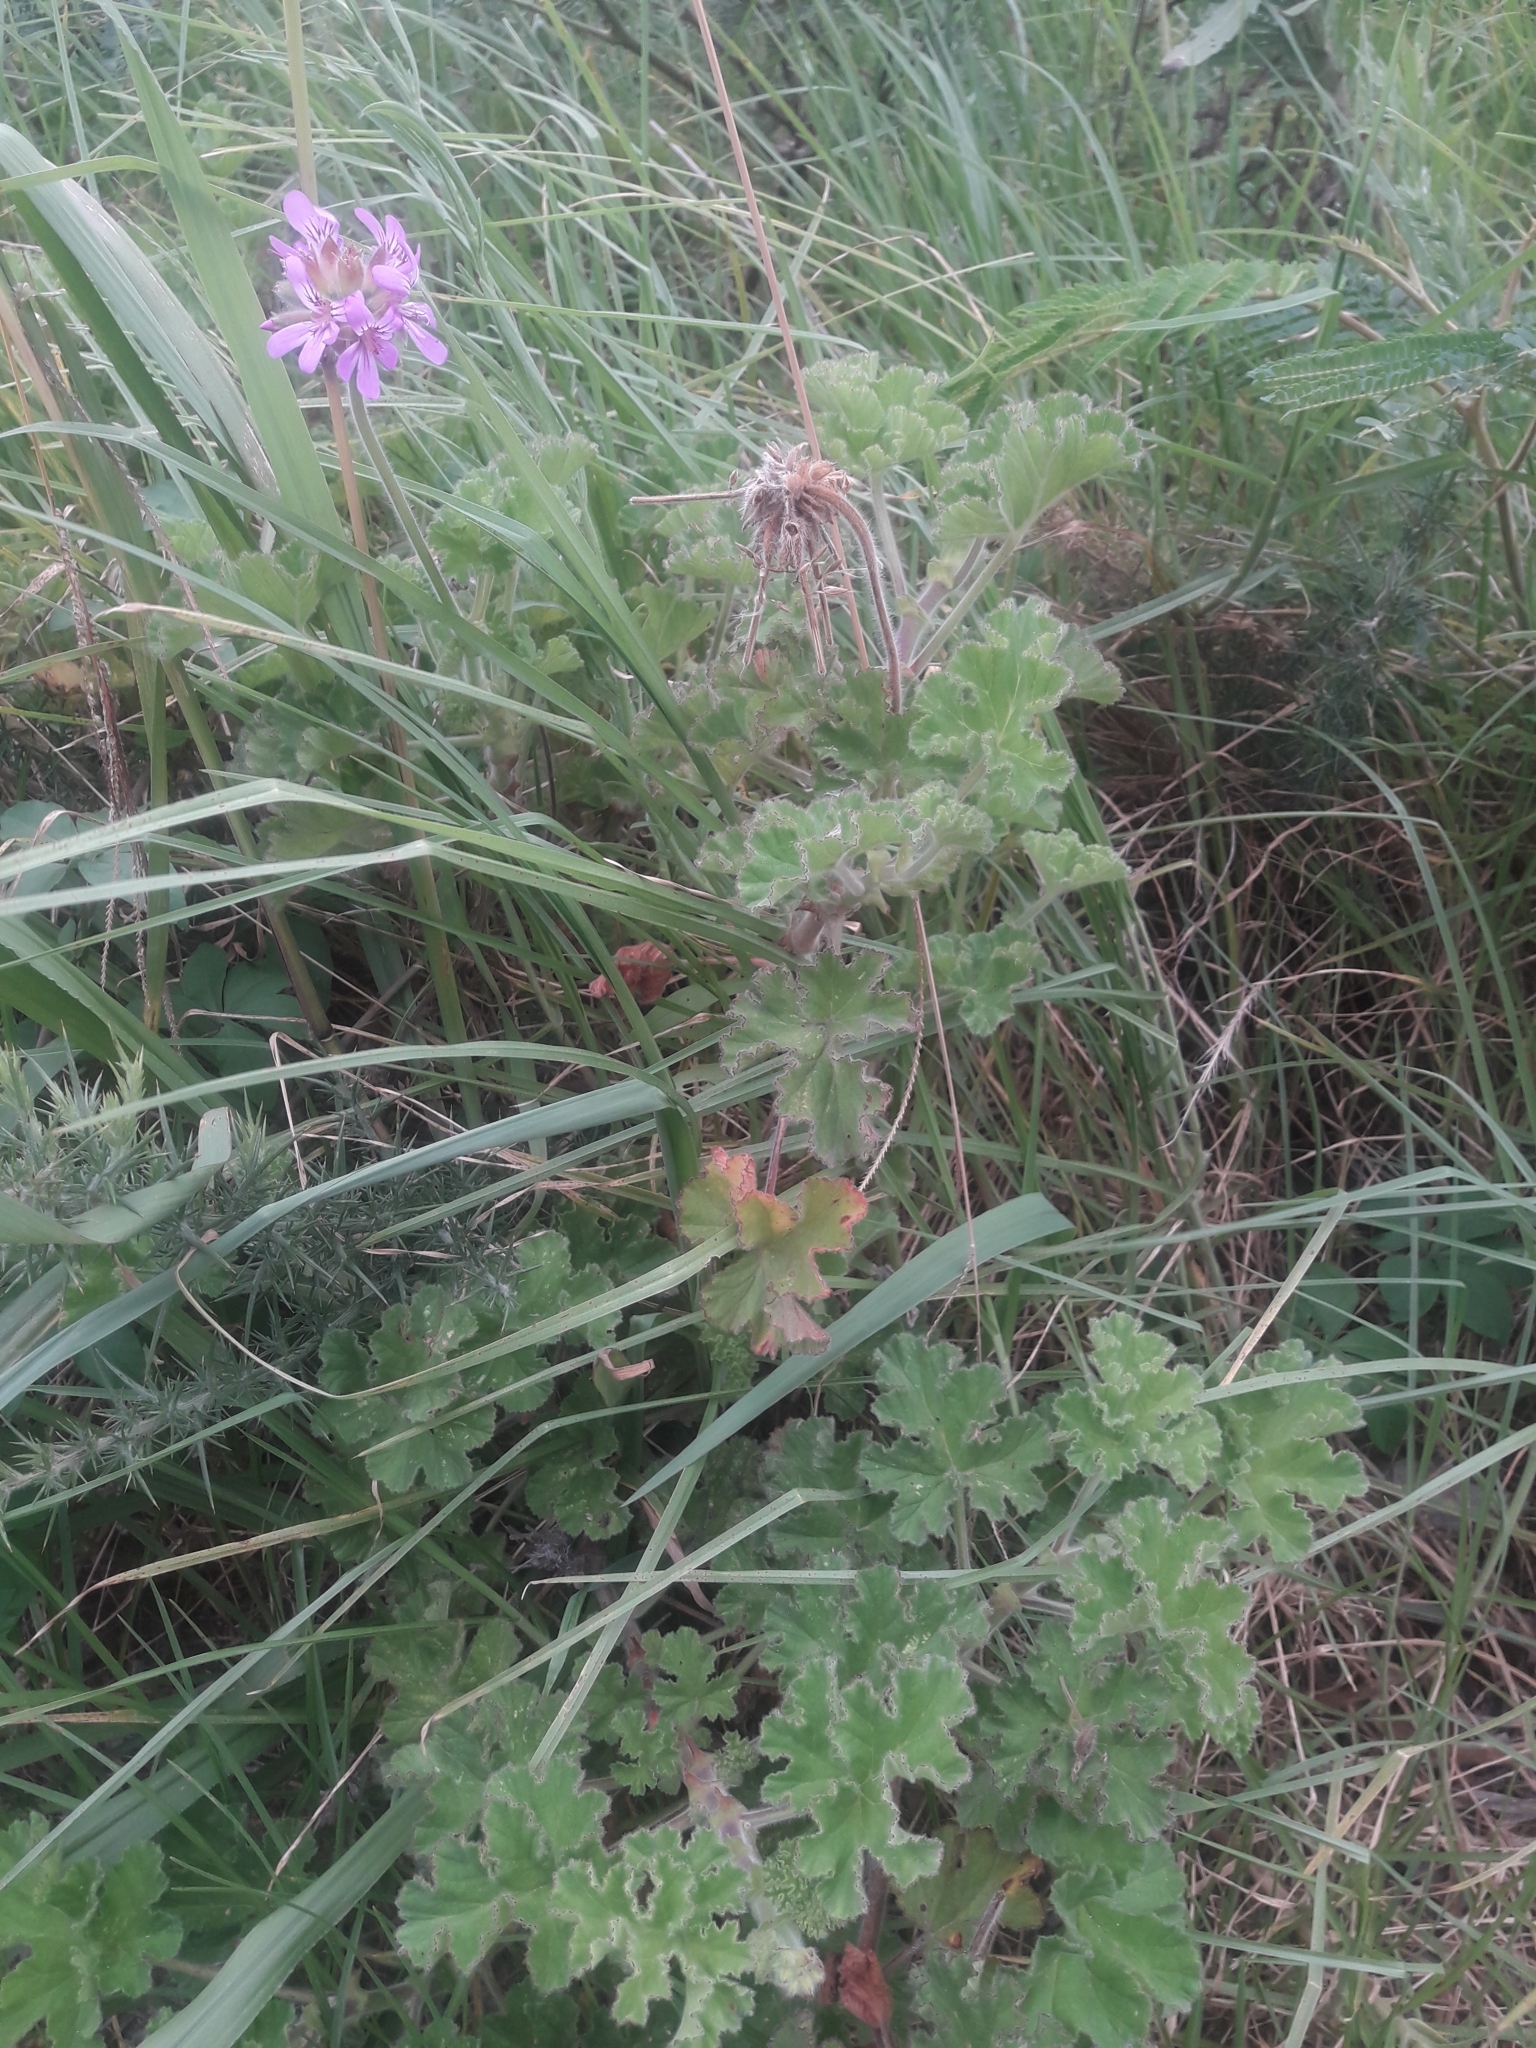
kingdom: Plantae
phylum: Tracheophyta
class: Magnoliopsida
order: Geraniales
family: Geraniaceae
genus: Pelargonium
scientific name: Pelargonium capitatum
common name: Rose scented geranium
